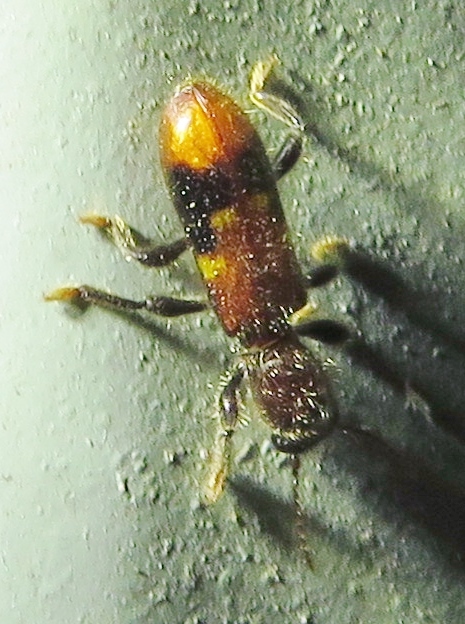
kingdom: Animalia
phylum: Arthropoda
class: Insecta
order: Coleoptera
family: Cleridae
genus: Priocera
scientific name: Priocera castanea
